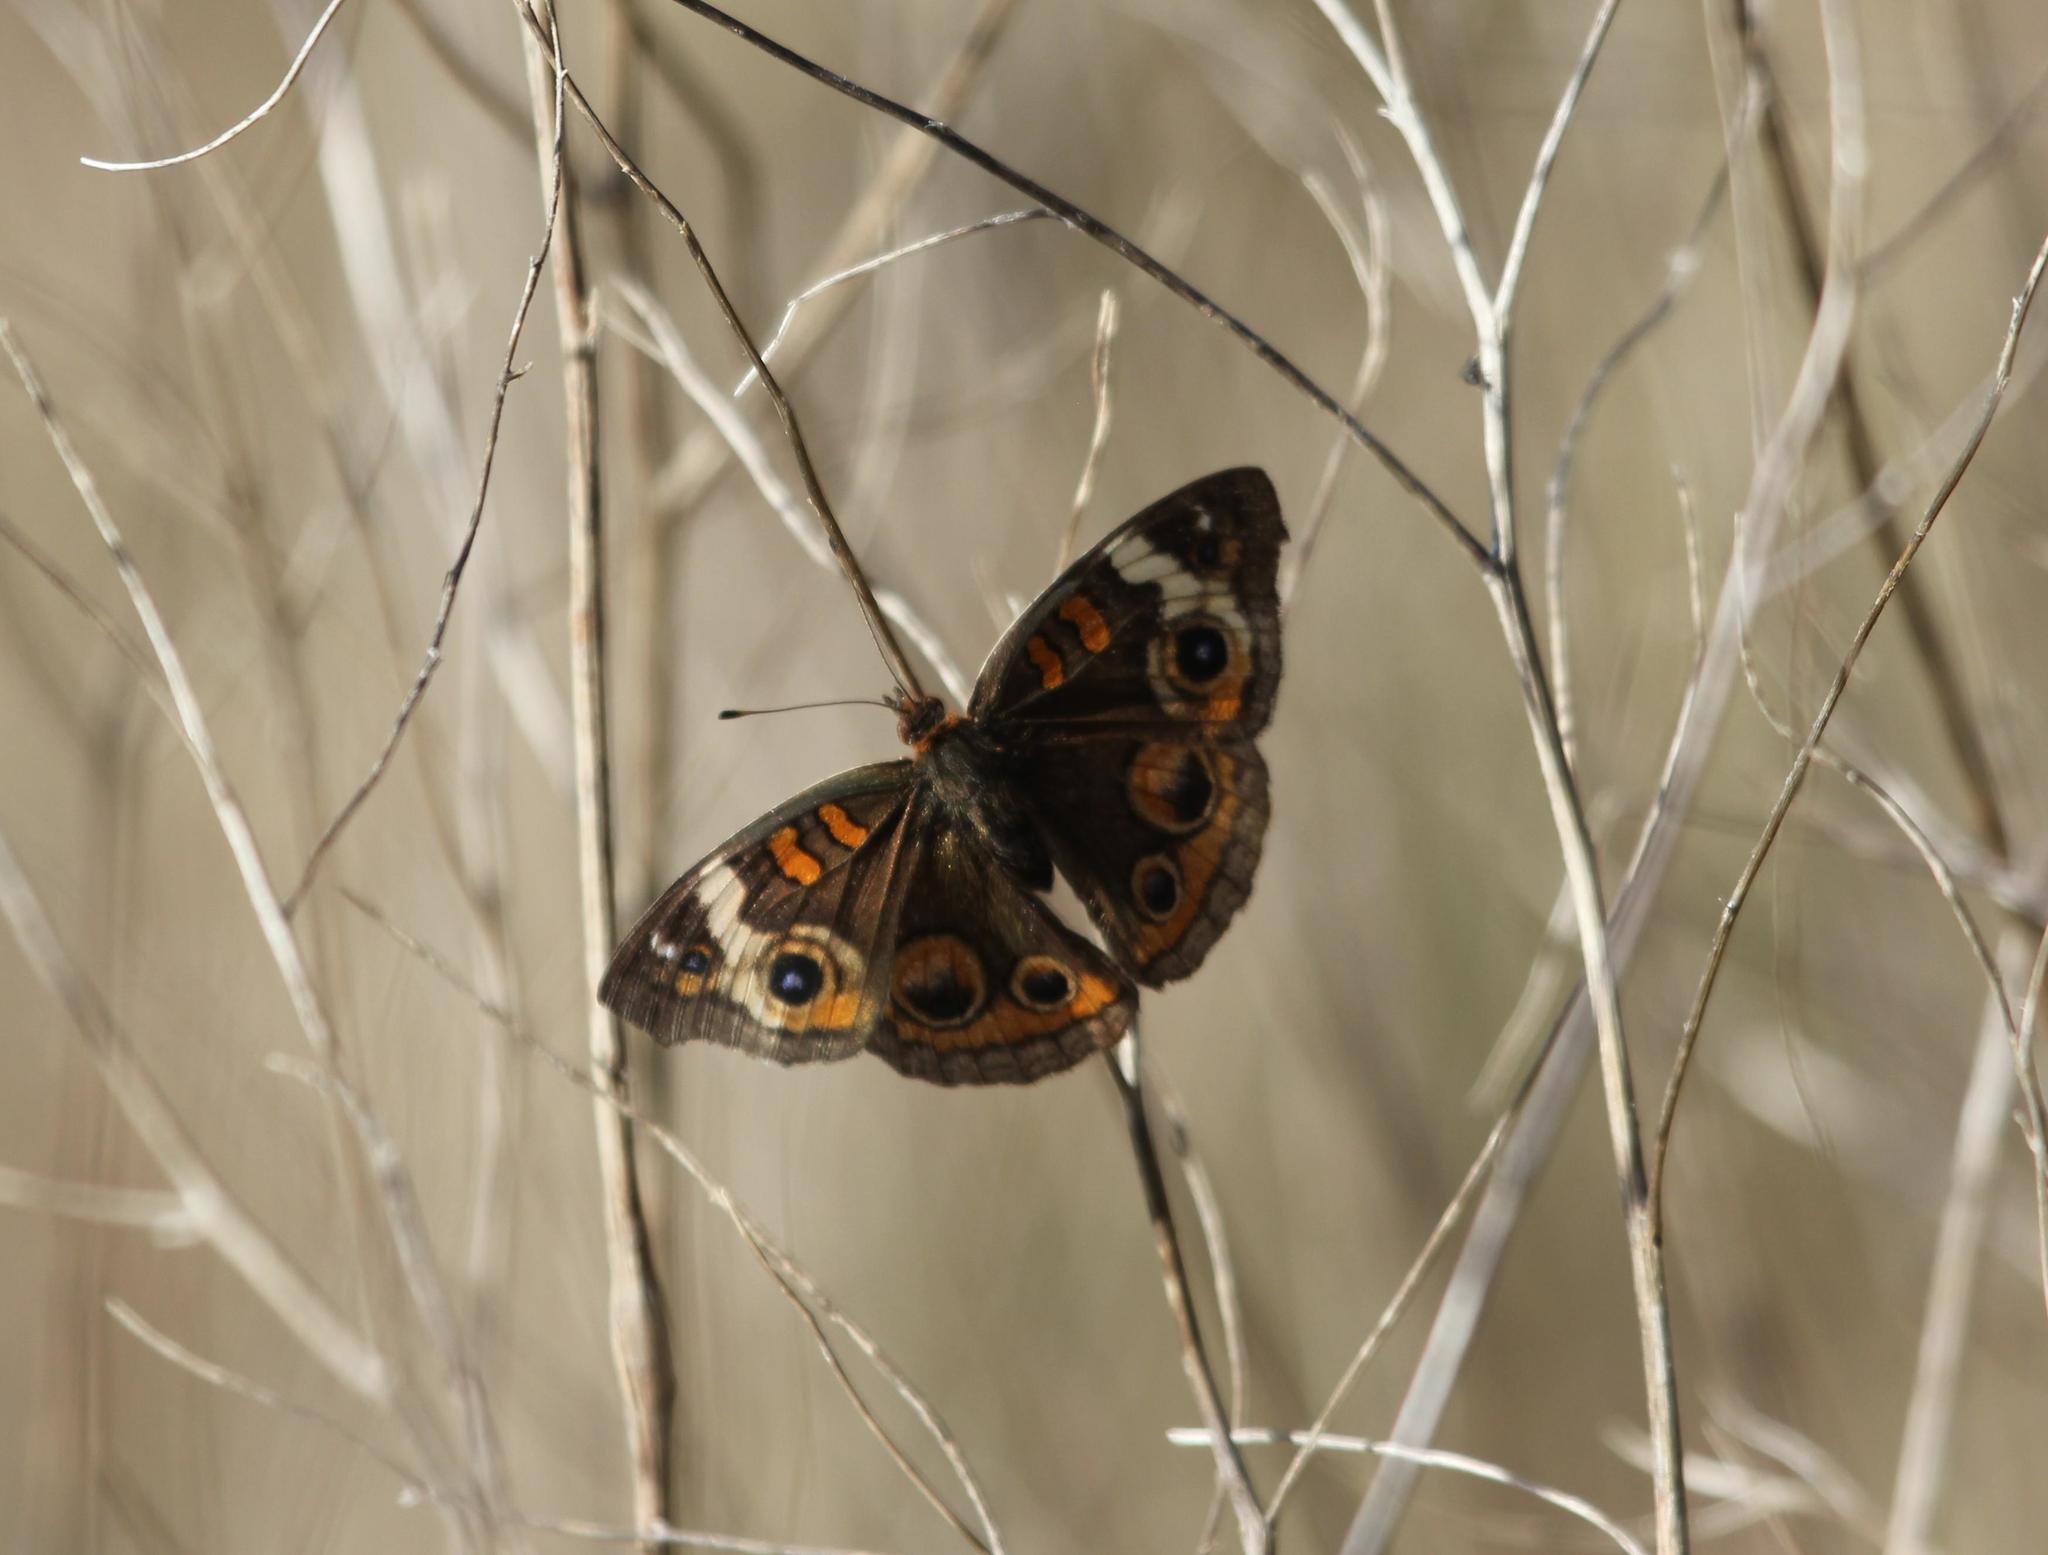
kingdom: Animalia
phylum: Arthropoda
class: Insecta
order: Lepidoptera
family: Nymphalidae
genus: Junonia
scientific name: Junonia coenia
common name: Common buckeye
